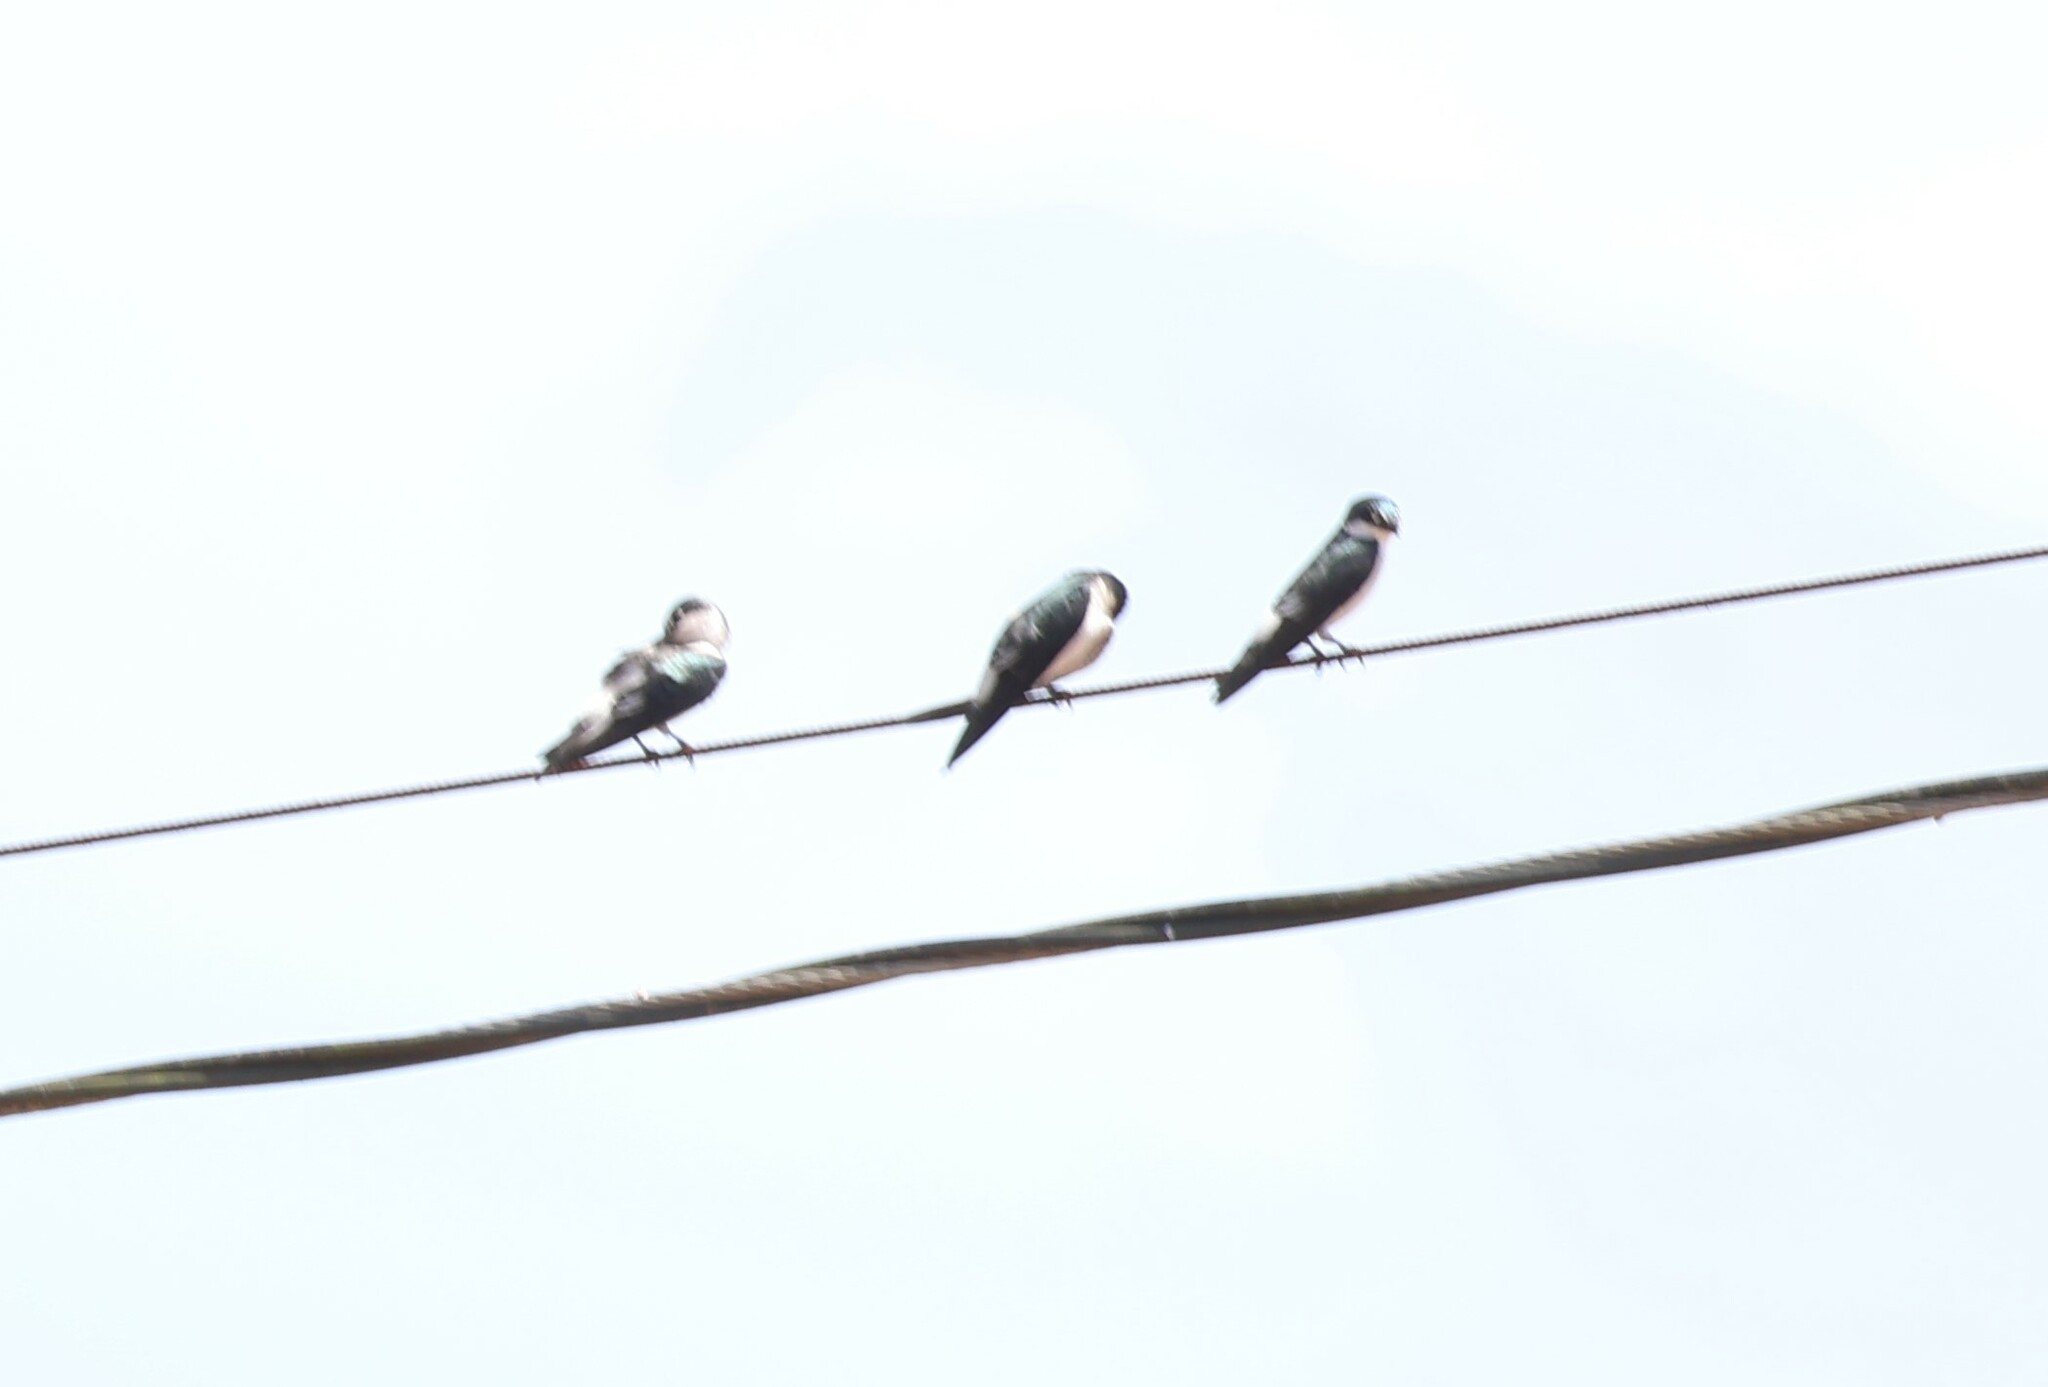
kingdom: Animalia
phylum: Chordata
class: Aves
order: Passeriformes
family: Hirundinidae
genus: Tachycineta
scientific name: Tachycineta albilinea
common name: Mangrove swallow
